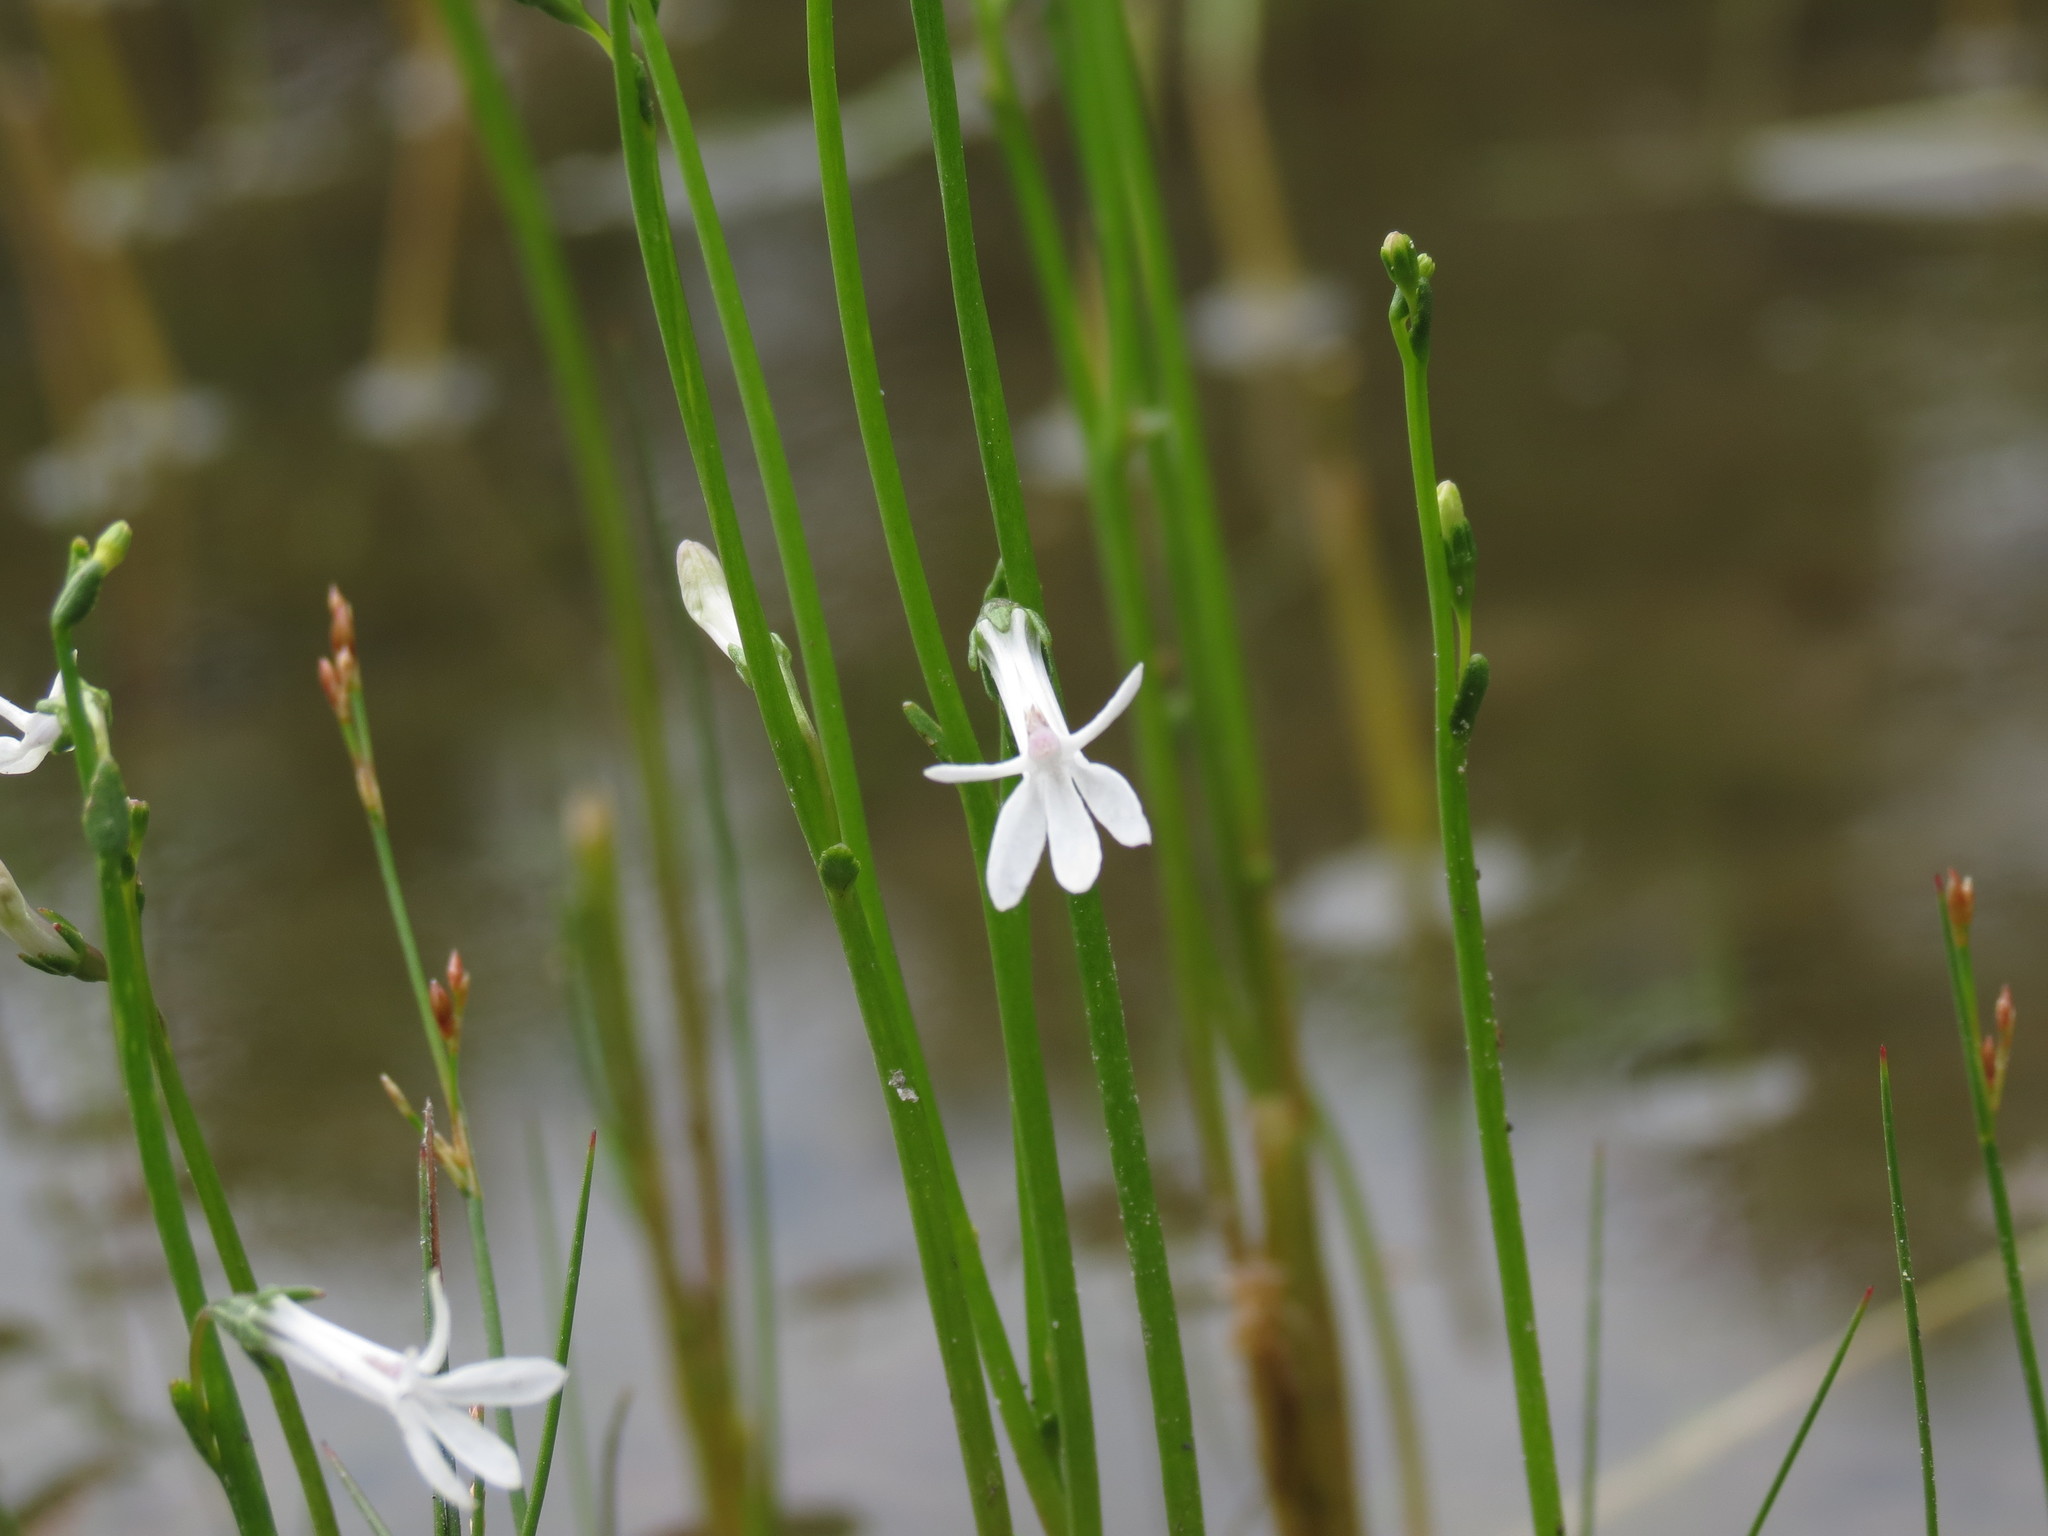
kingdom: Plantae
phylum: Tracheophyta
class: Magnoliopsida
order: Asterales
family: Campanulaceae
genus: Lobelia
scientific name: Lobelia dortmanna
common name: Water lobelia
